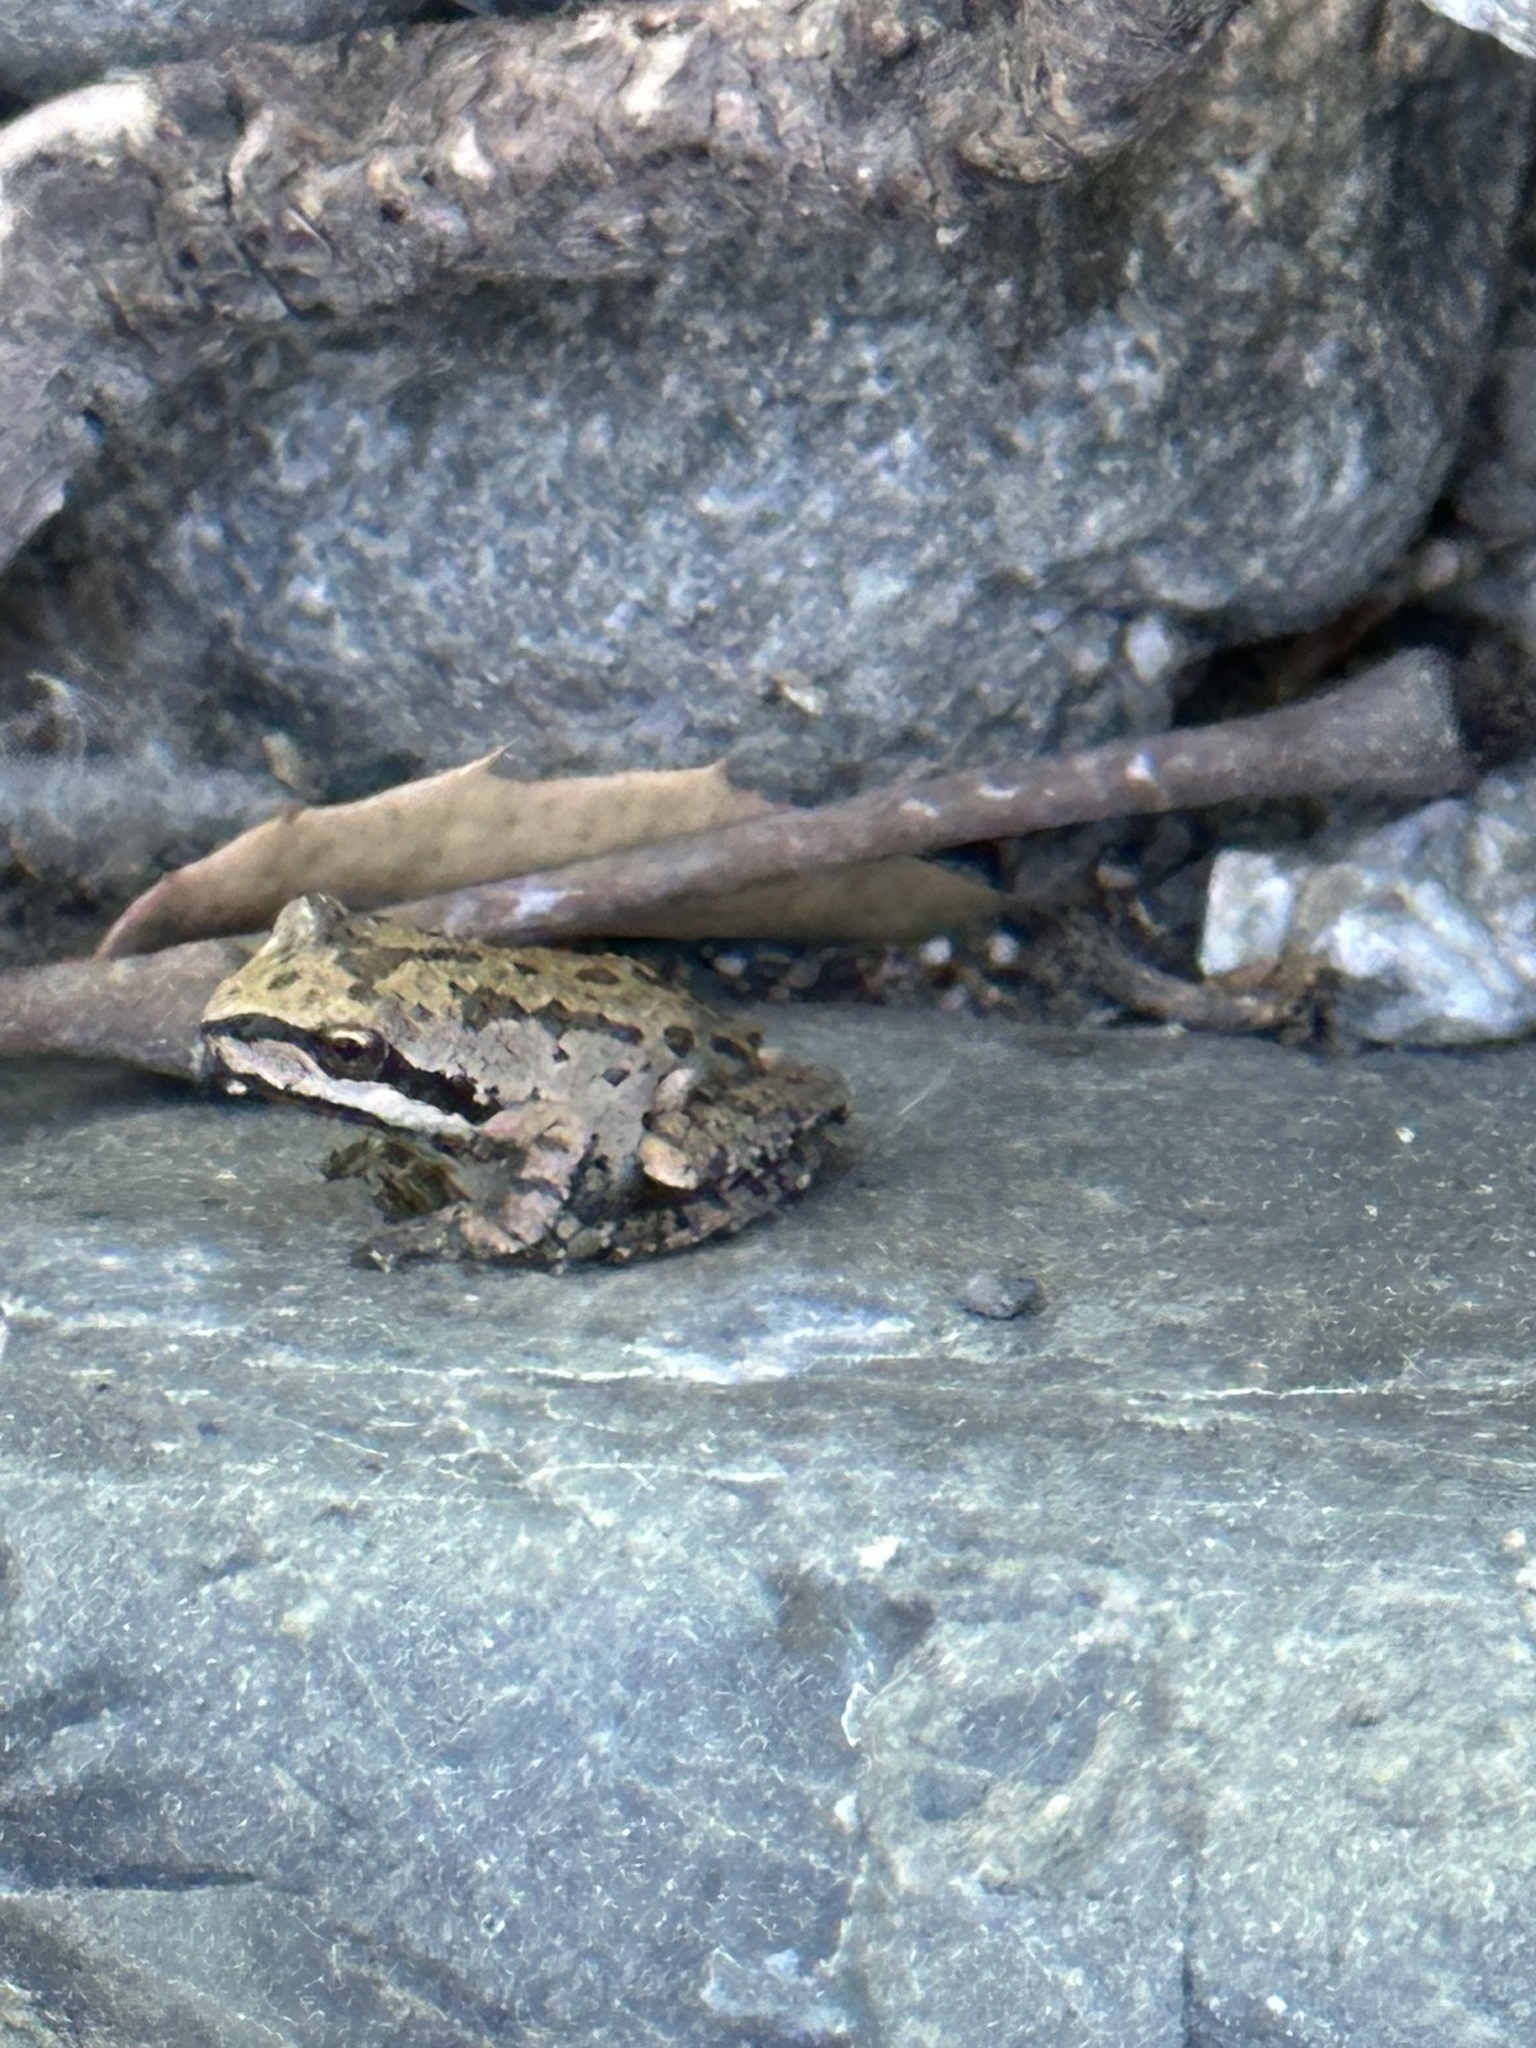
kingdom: Animalia
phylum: Chordata
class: Amphibia
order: Anura
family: Hylidae
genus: Pseudacris
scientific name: Pseudacris regilla
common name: Pacific chorus frog
